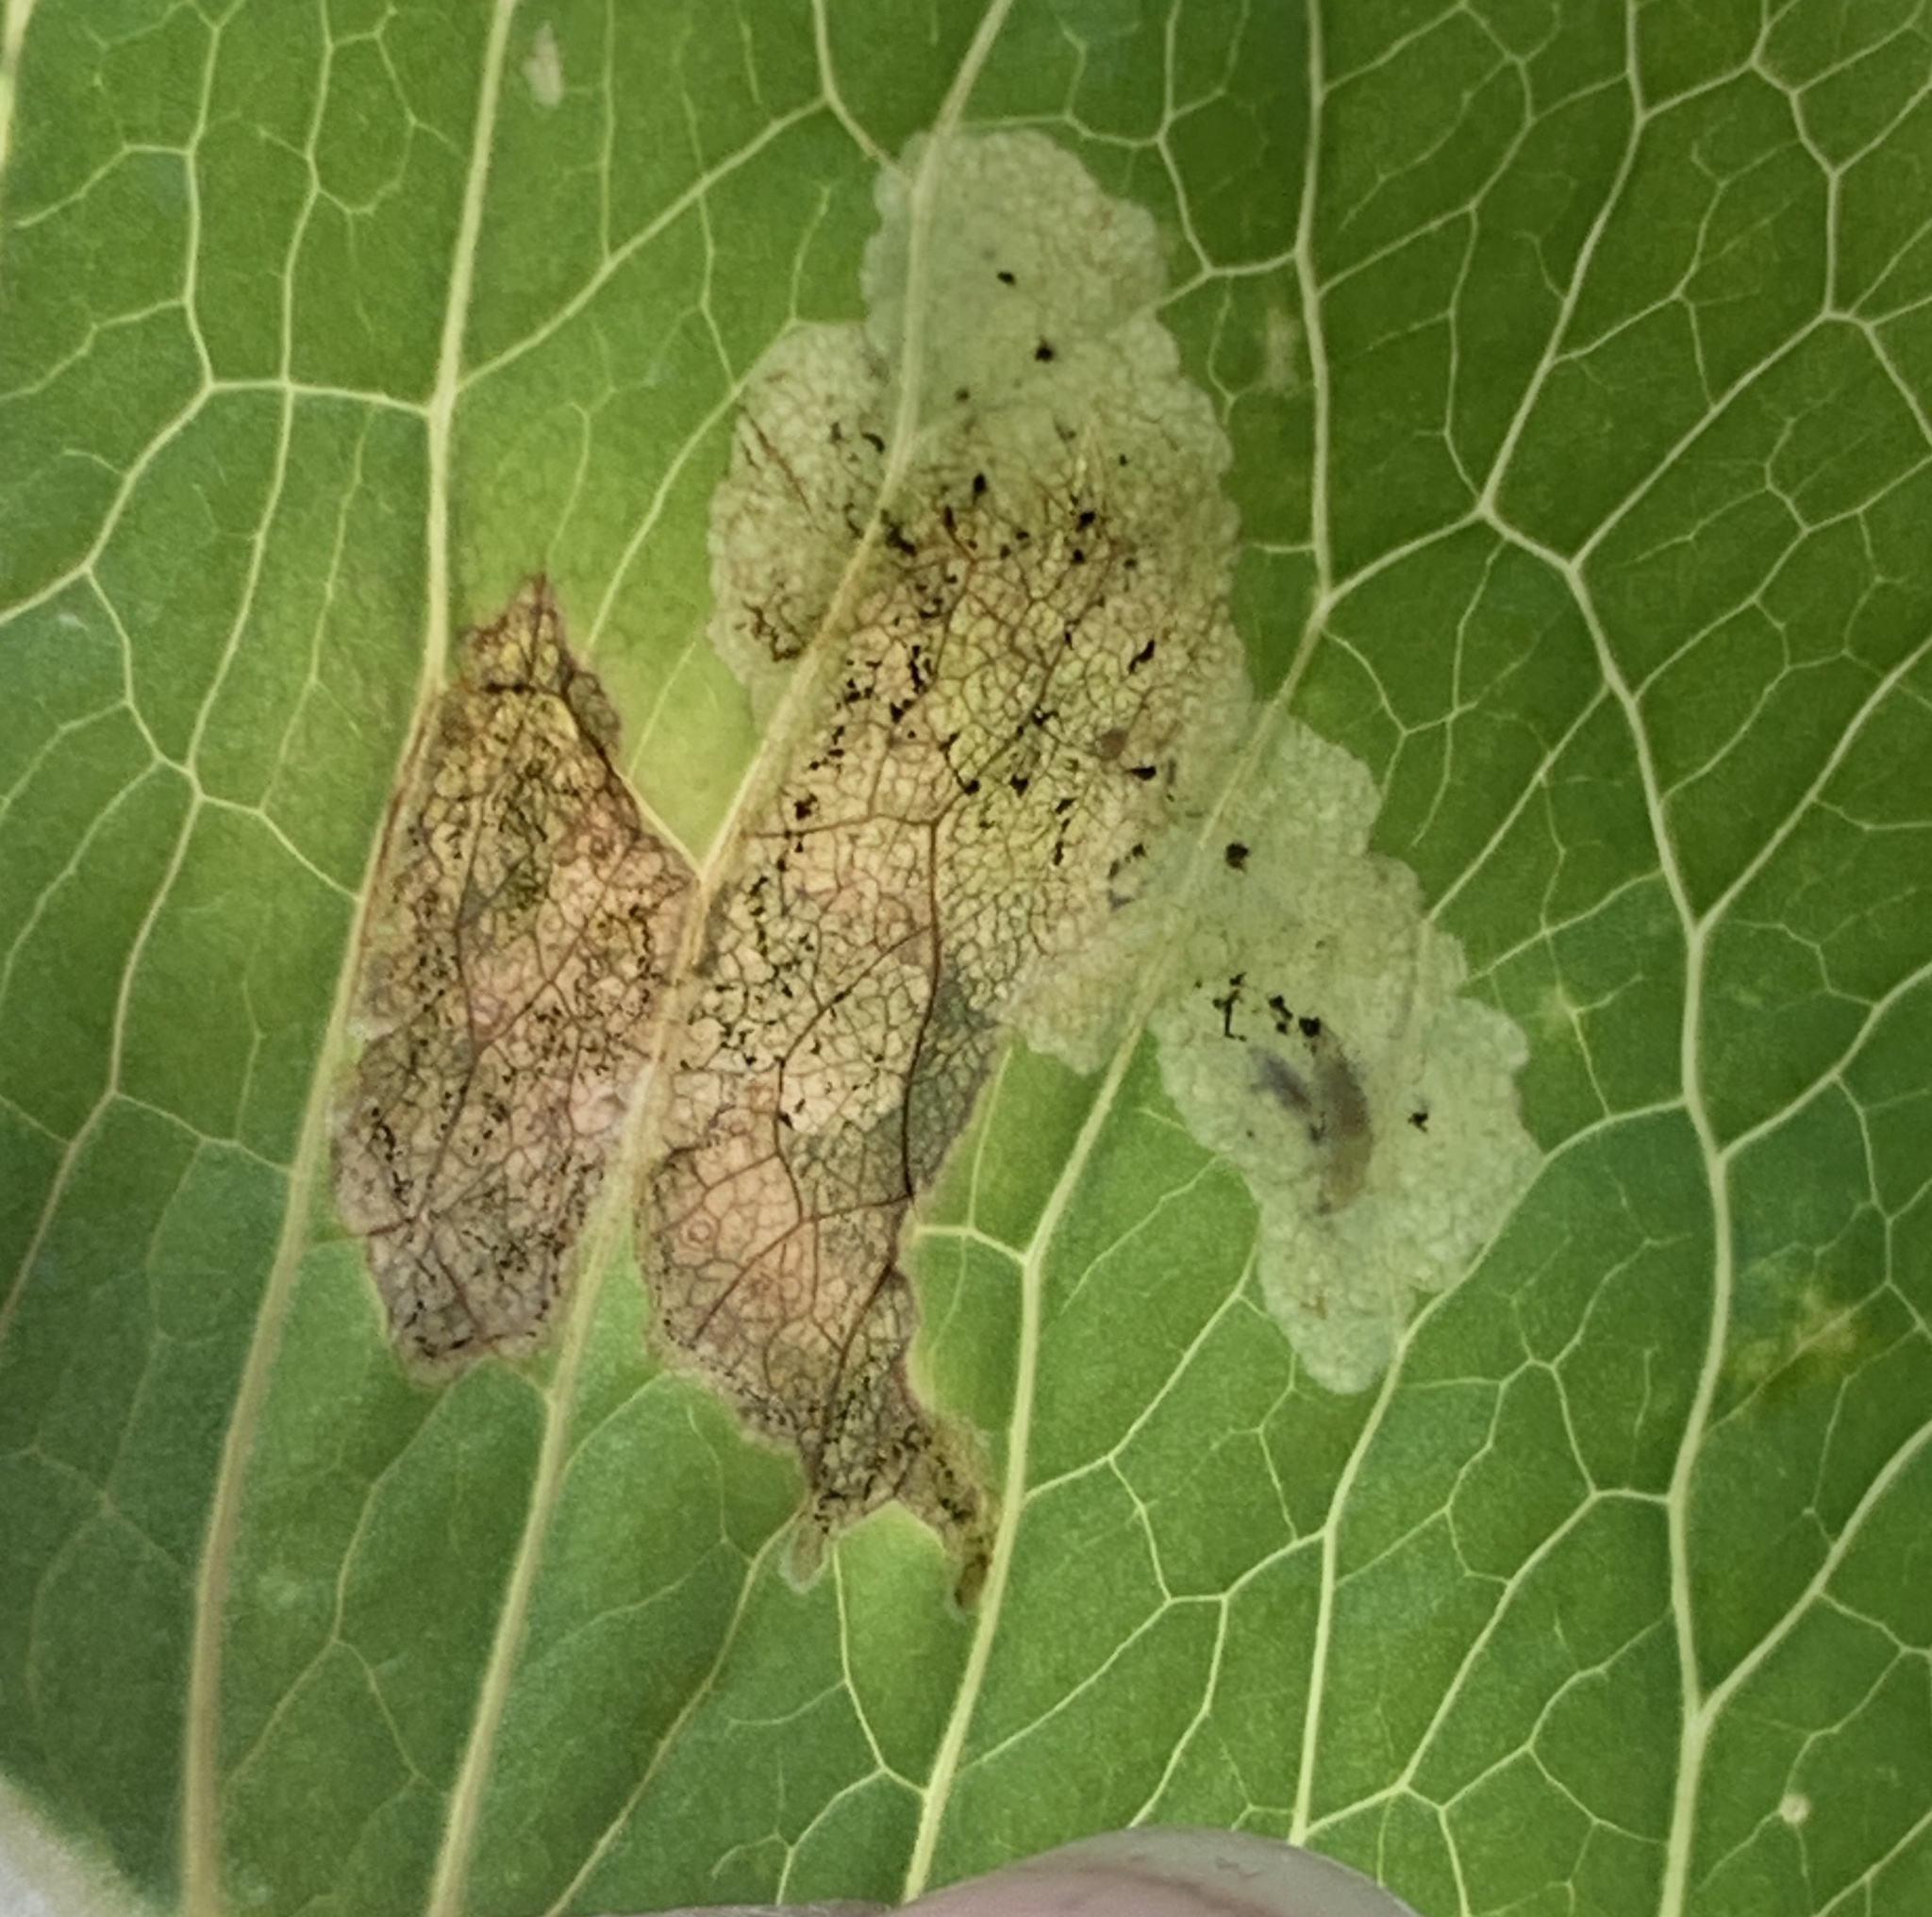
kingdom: Animalia
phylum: Arthropoda
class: Insecta
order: Diptera
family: Agromyzidae
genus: Liriomyza
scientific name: Liriomyza taraxaci
